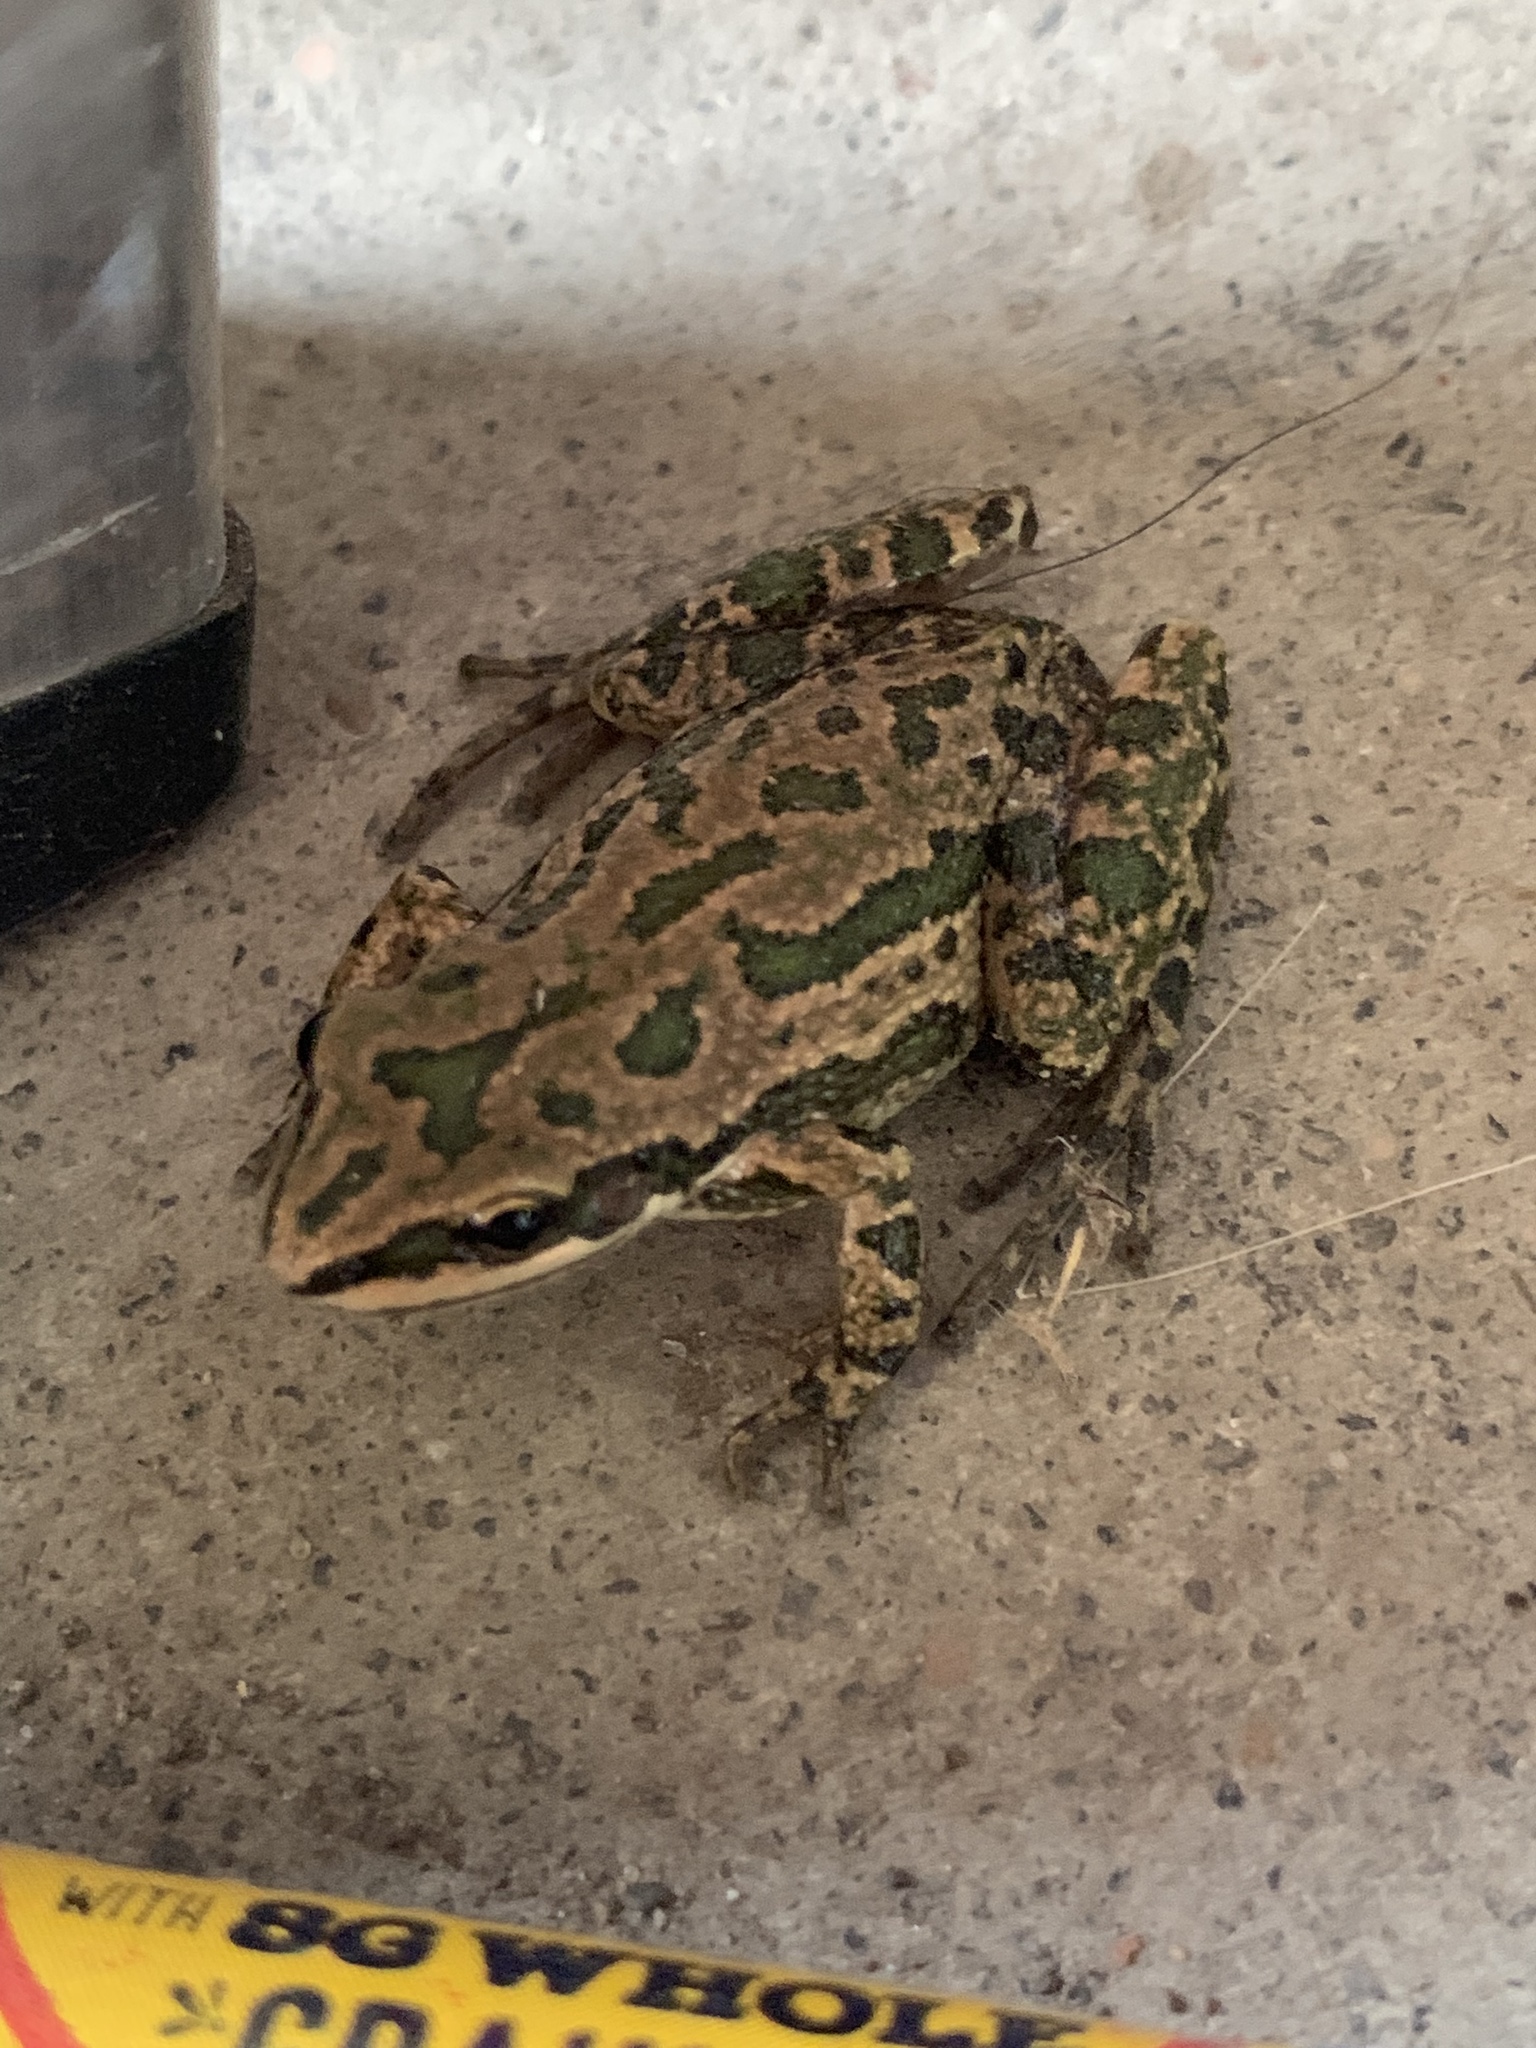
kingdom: Animalia
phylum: Chordata
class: Amphibia
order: Anura
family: Hylidae
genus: Pseudacris
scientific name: Pseudacris clarkii
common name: Spotted chorus frog
